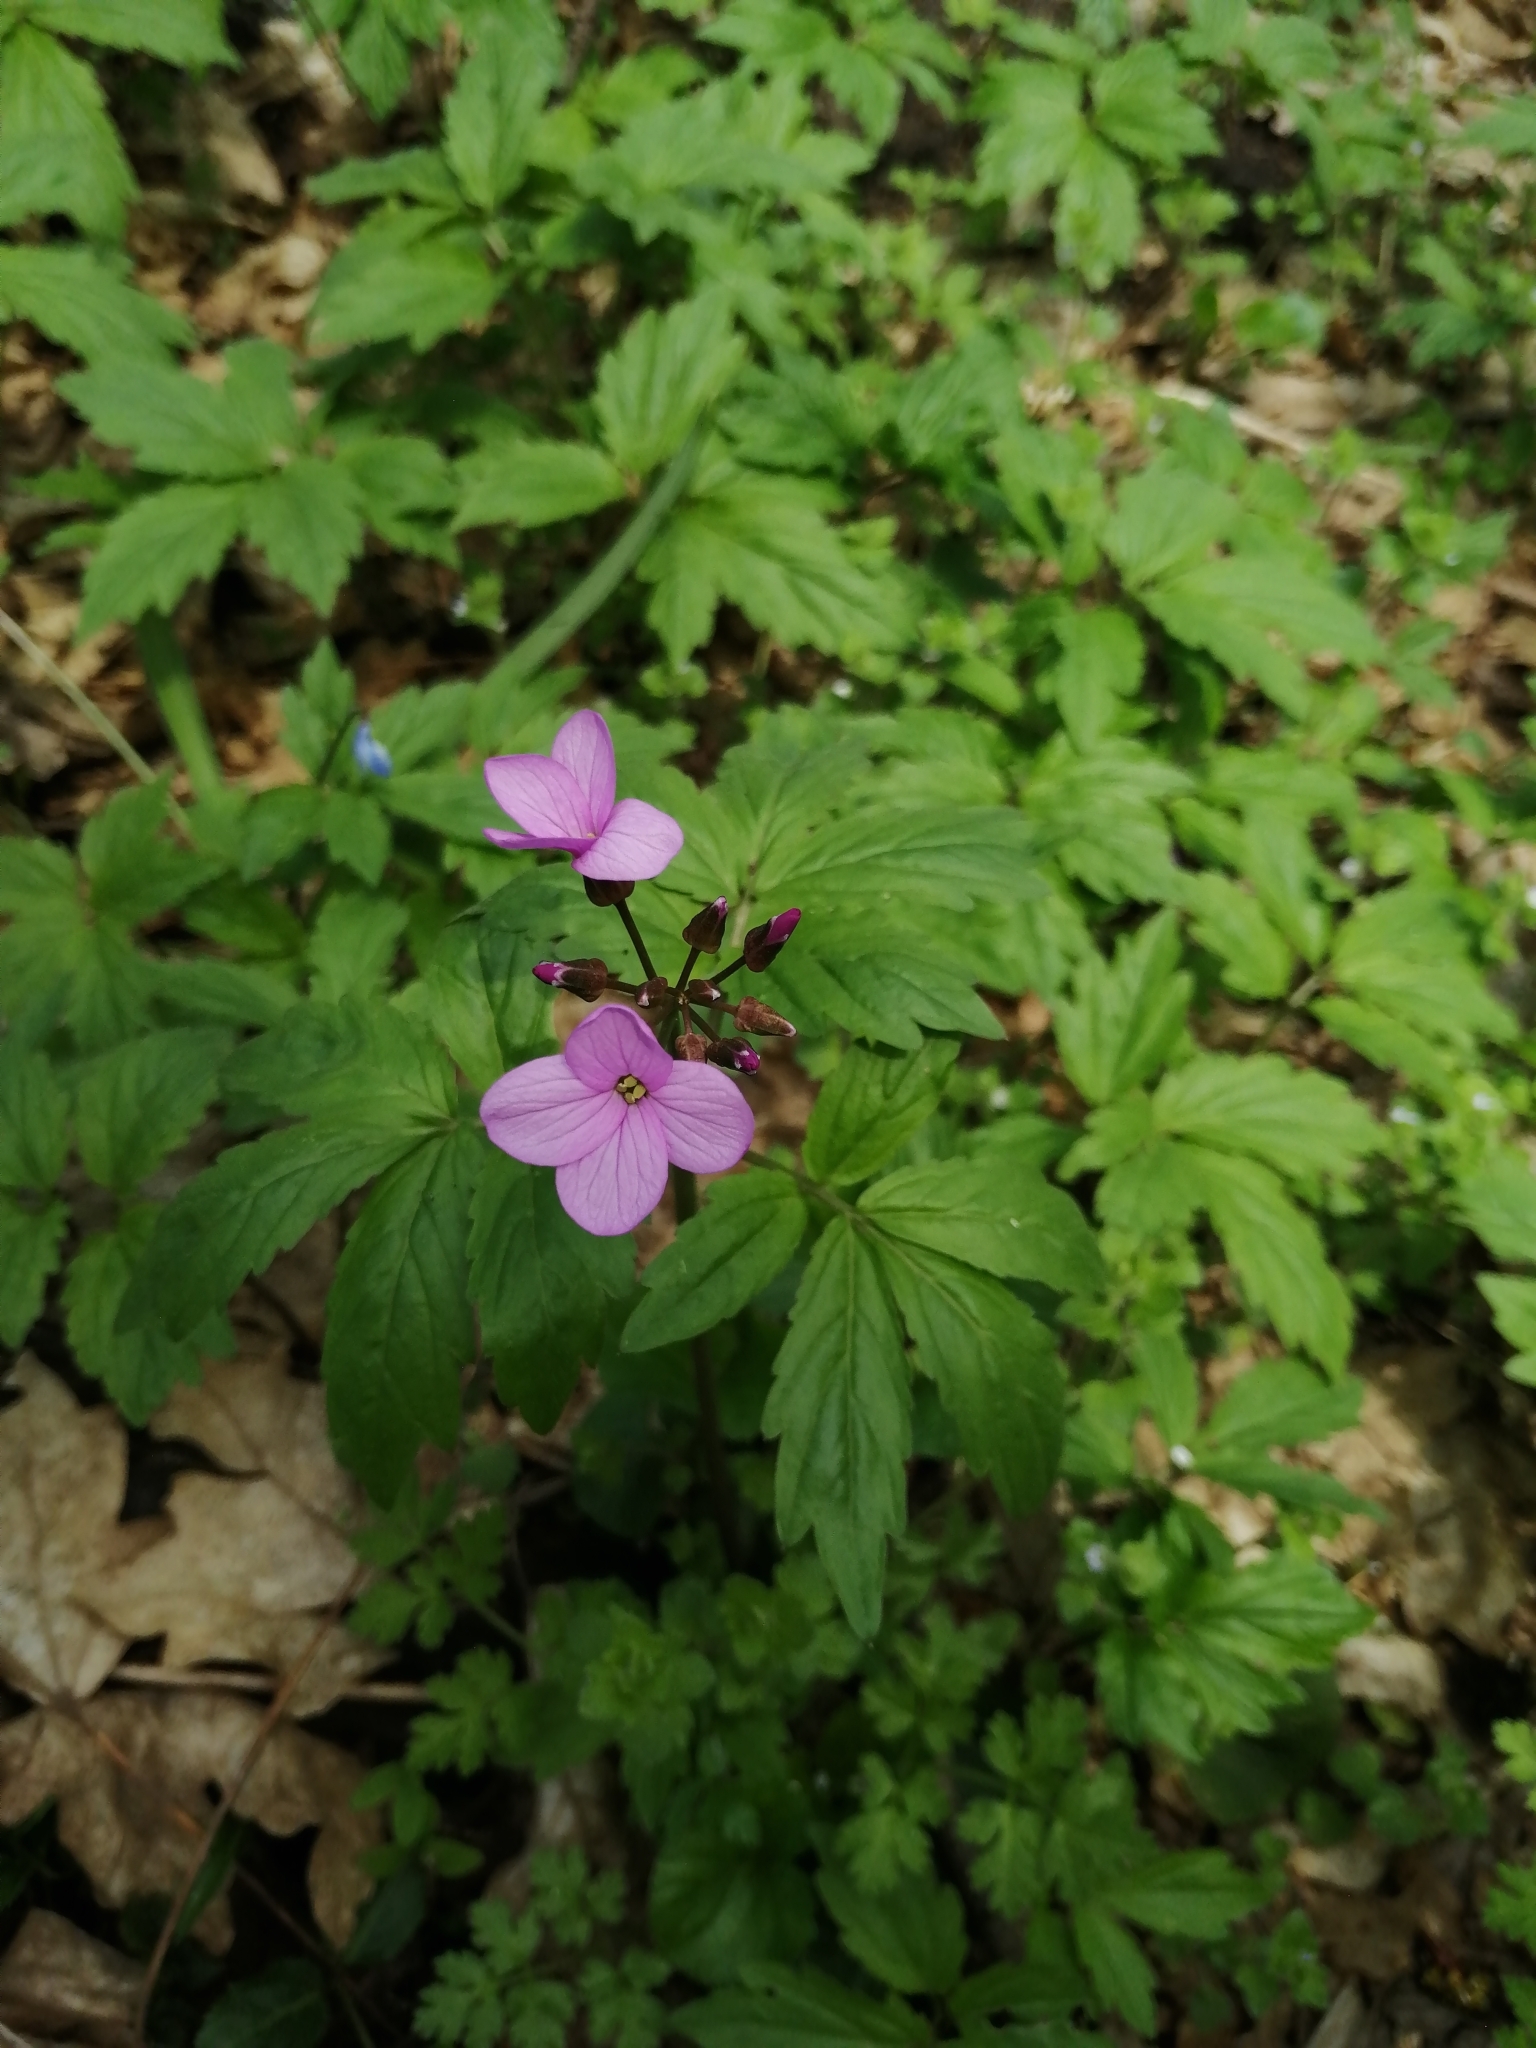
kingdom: Plantae
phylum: Tracheophyta
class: Magnoliopsida
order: Brassicales
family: Brassicaceae
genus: Cardamine
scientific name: Cardamine quinquefolia
